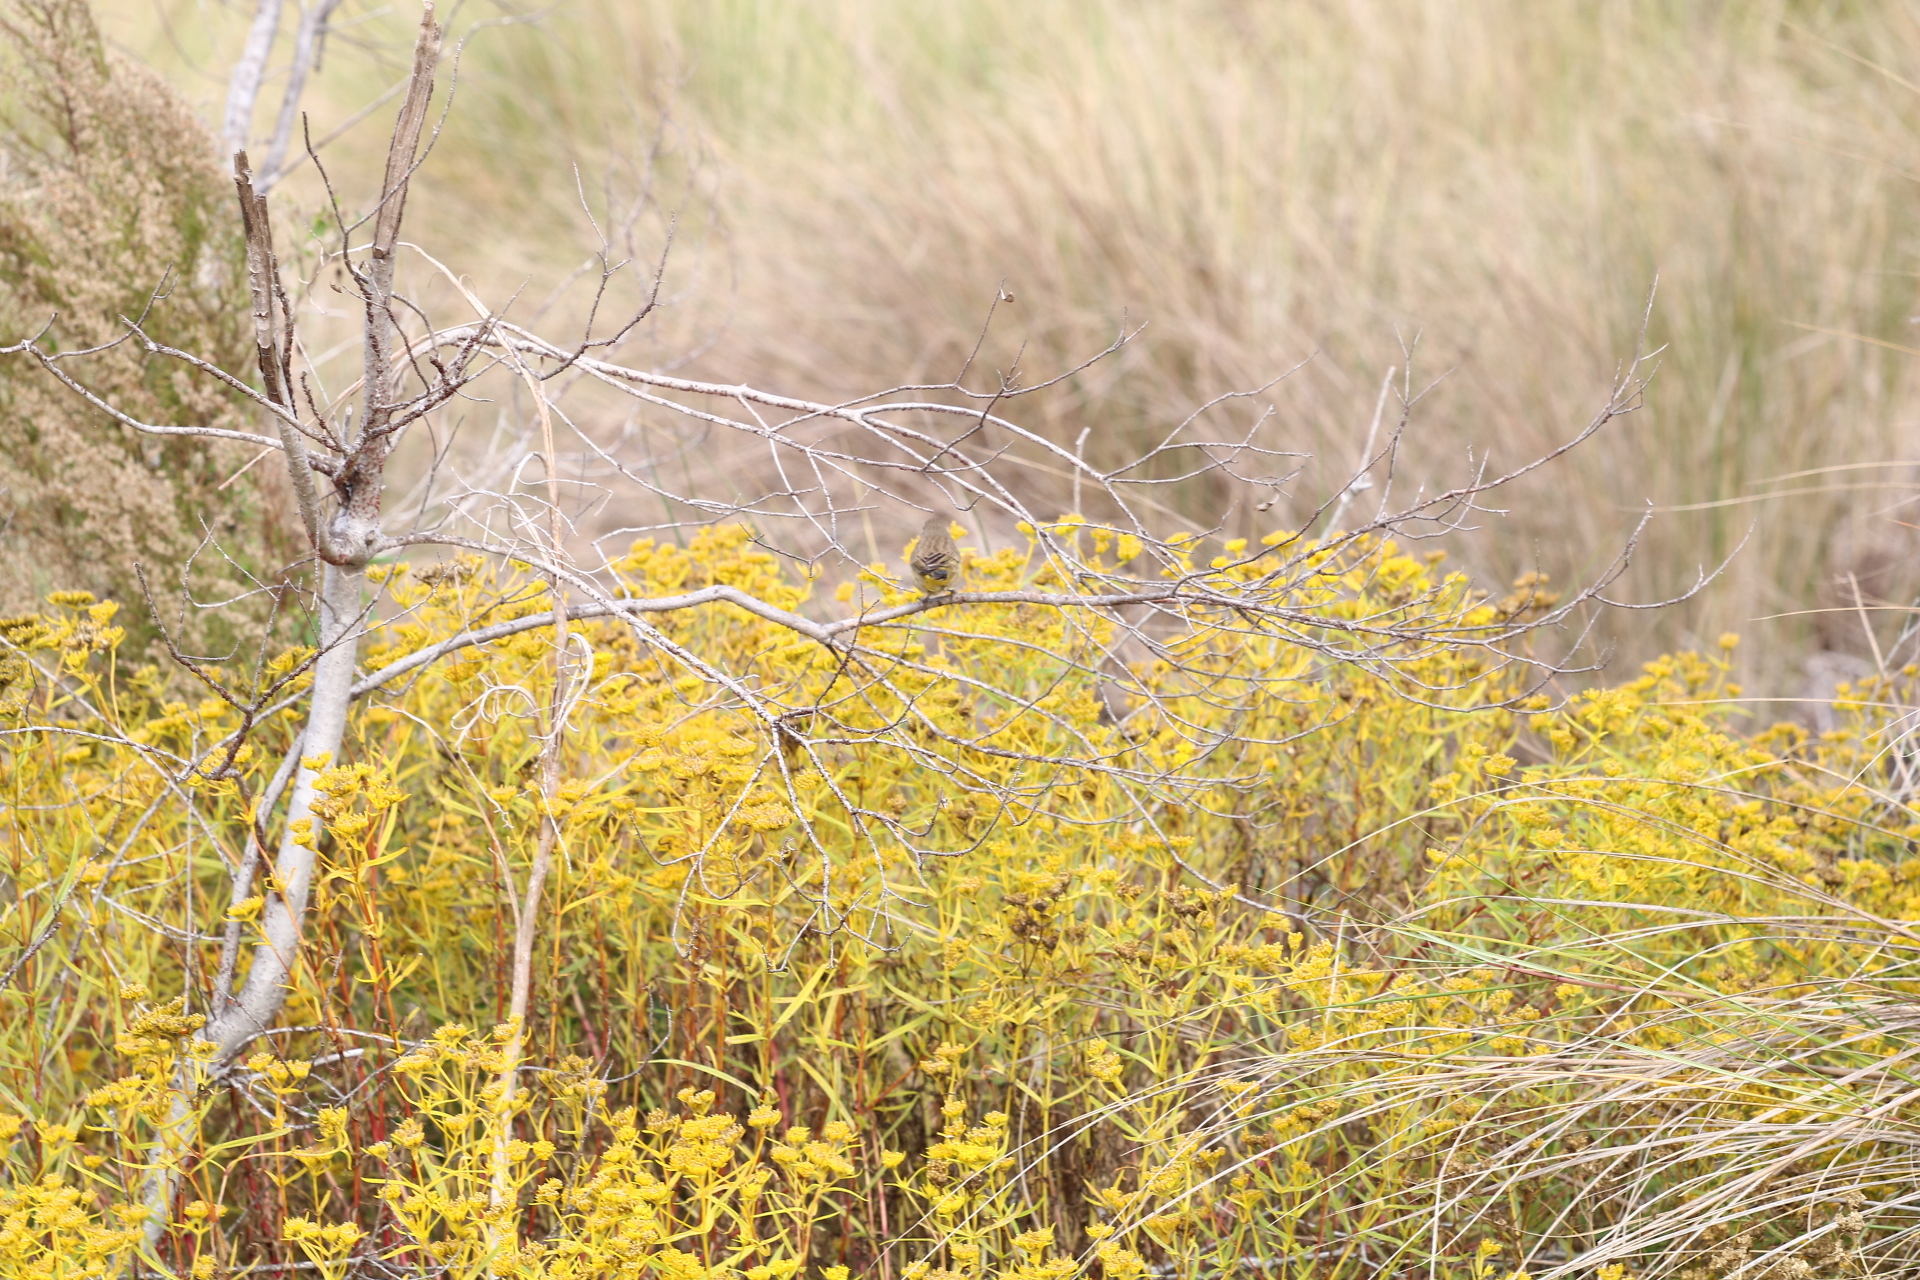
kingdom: Animalia
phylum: Chordata
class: Aves
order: Passeriformes
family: Parulidae
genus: Setophaga
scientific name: Setophaga palmarum
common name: Palm warbler
